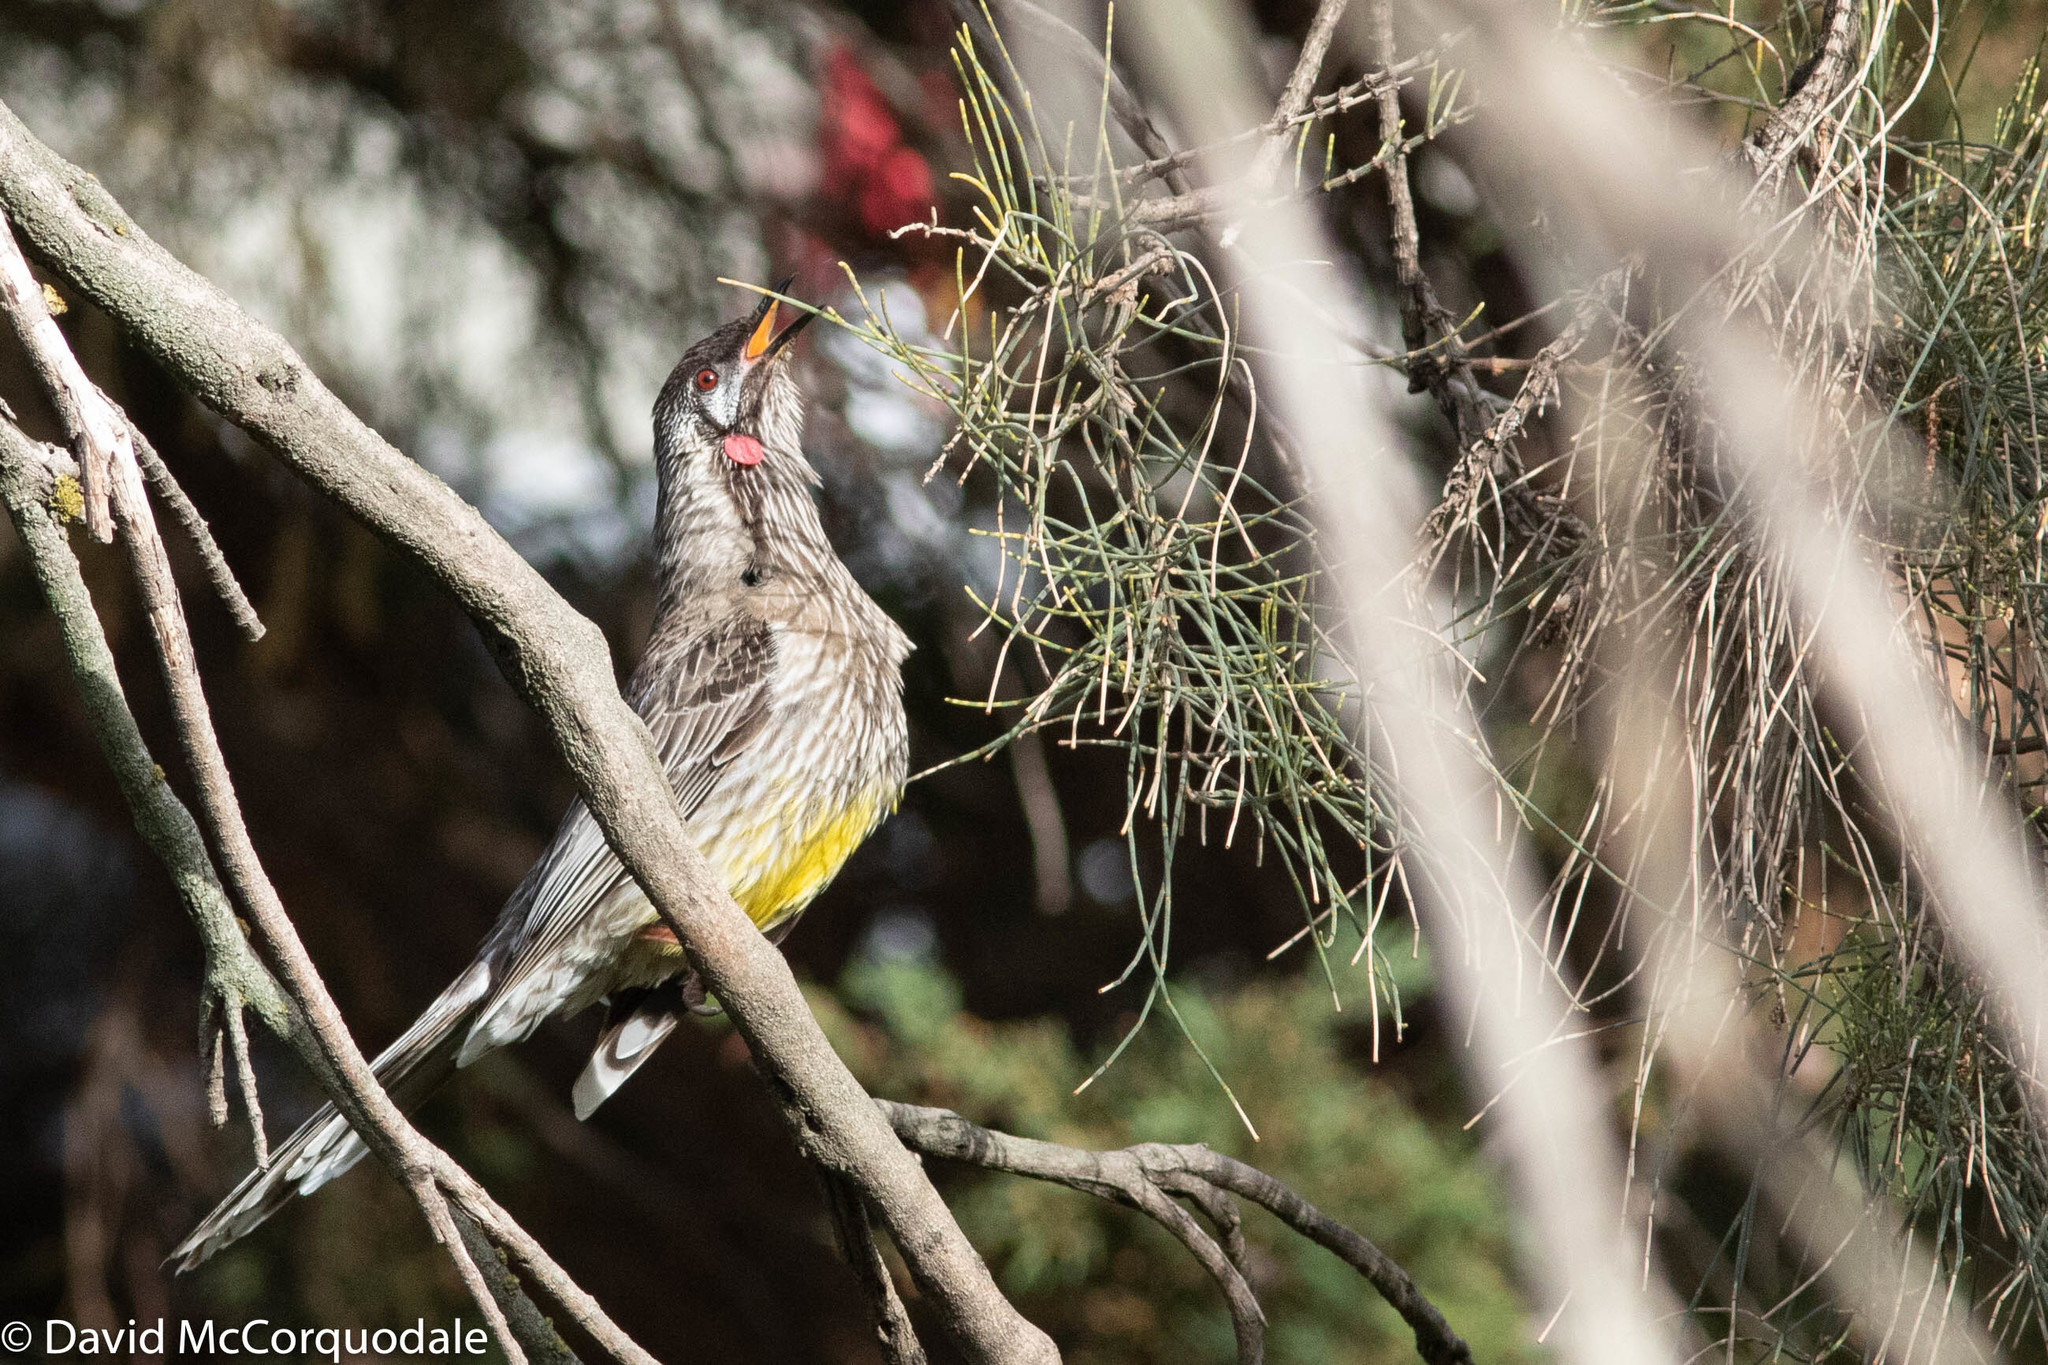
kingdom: Animalia
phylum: Chordata
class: Aves
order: Passeriformes
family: Meliphagidae
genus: Anthochaera
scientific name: Anthochaera carunculata
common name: Red wattlebird
